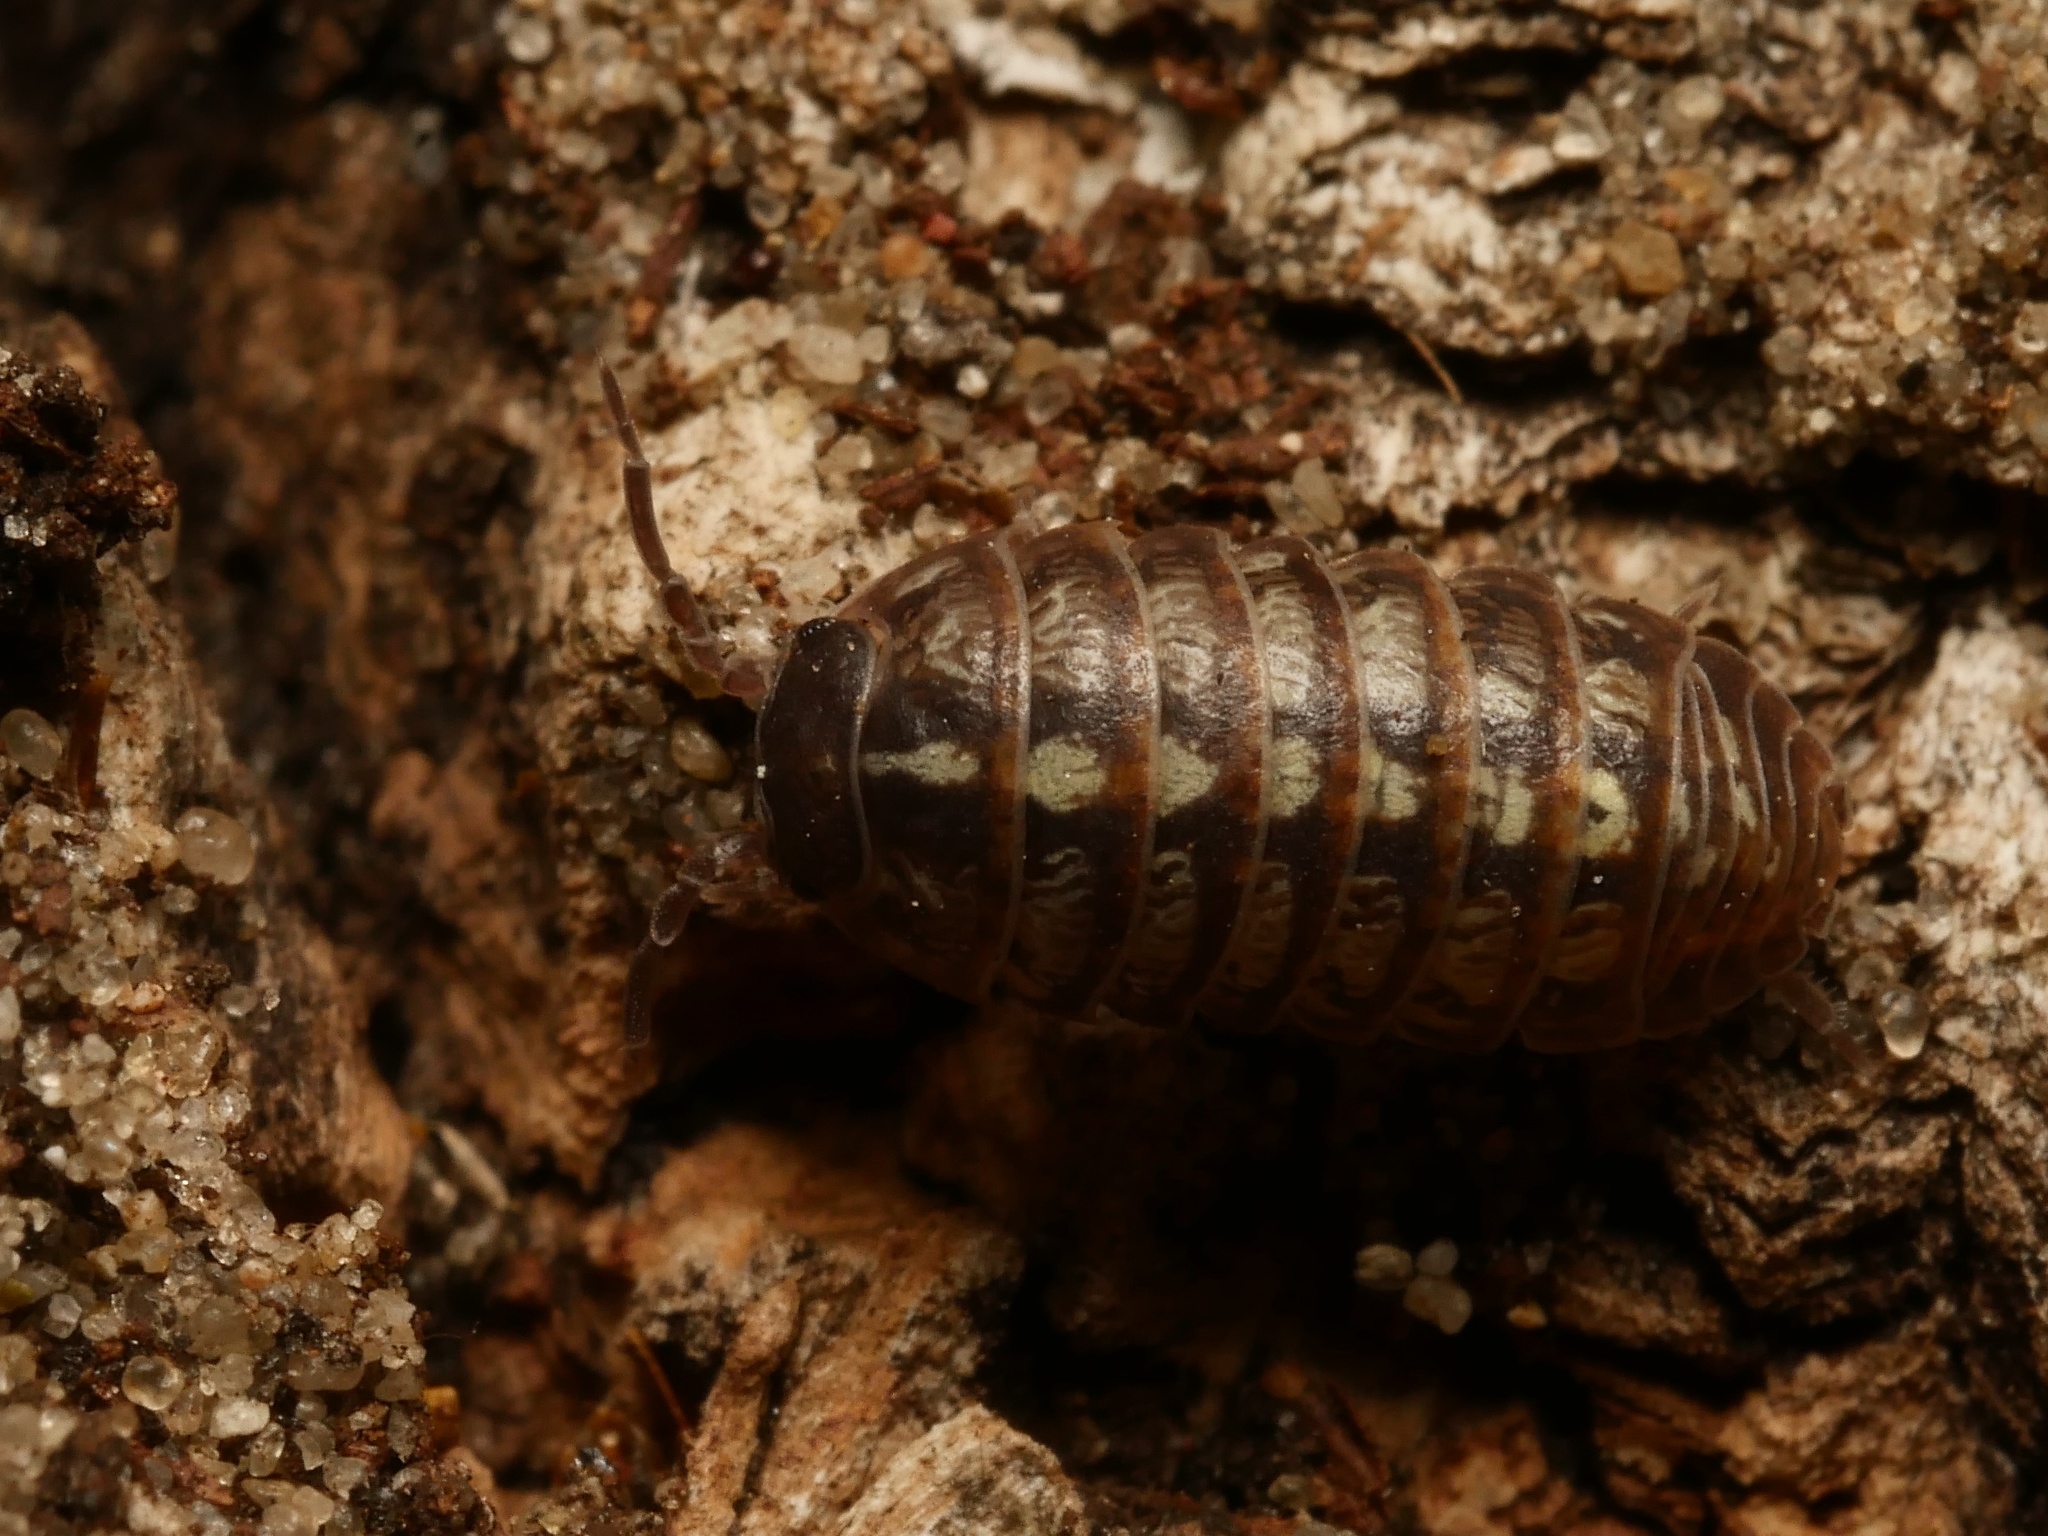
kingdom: Animalia
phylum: Arthropoda
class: Malacostraca
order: Isopoda
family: Armadillidiidae
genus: Armadillidium
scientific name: Armadillidium vulgare
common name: Common pill woodlouse
